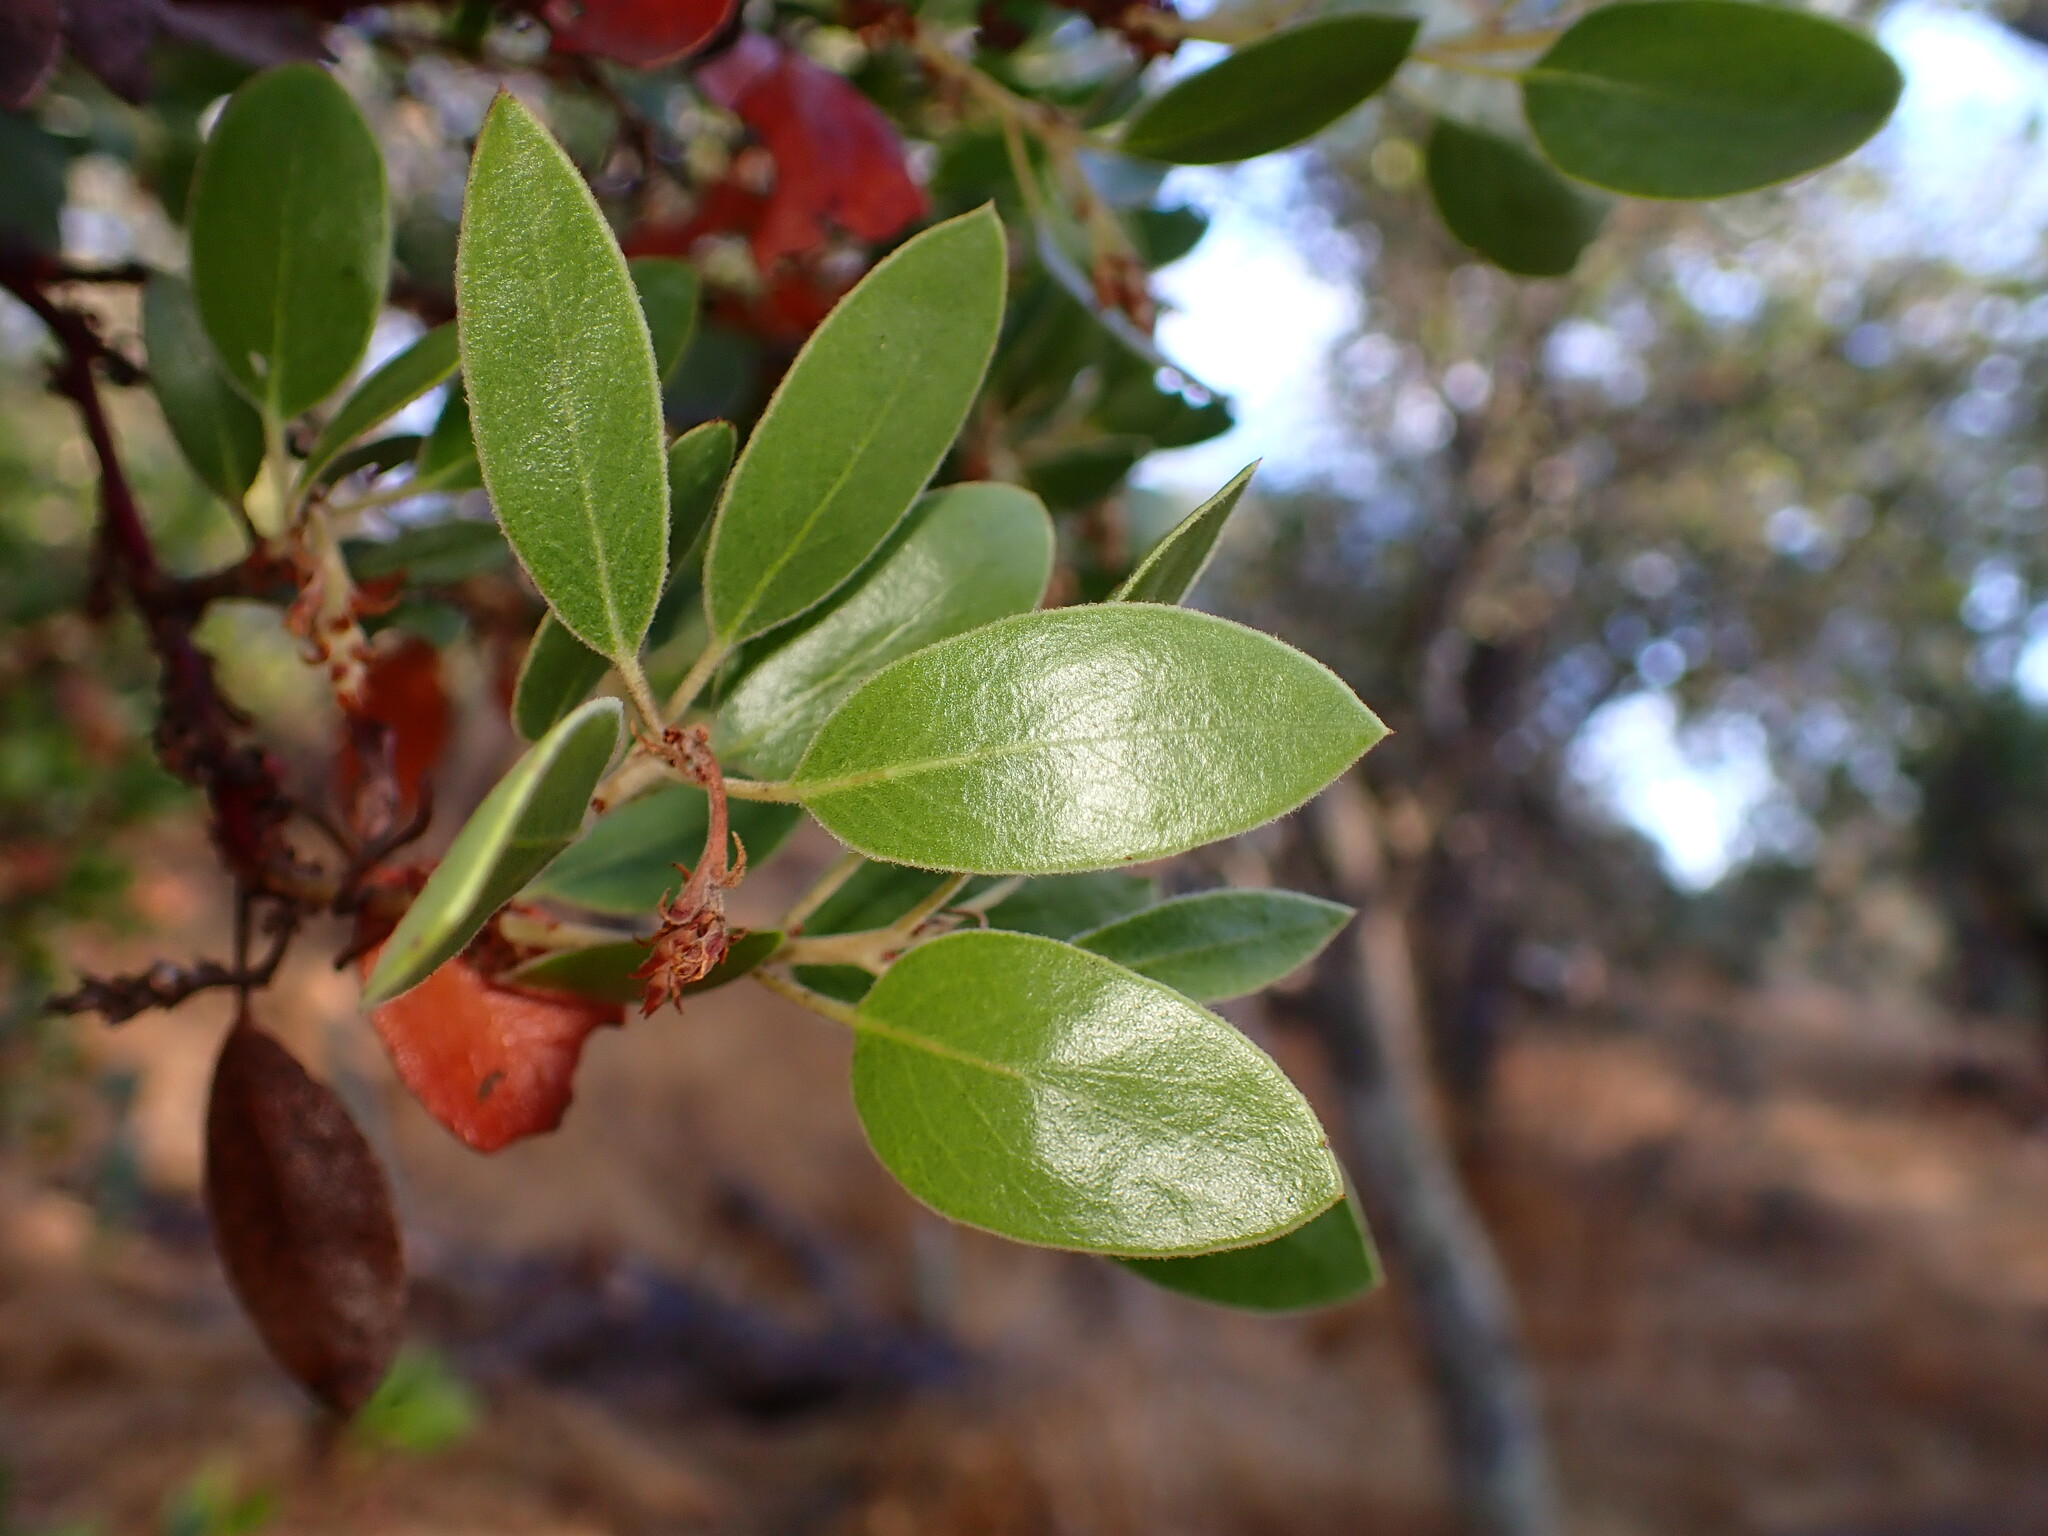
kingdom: Plantae
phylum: Tracheophyta
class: Magnoliopsida
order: Ericales
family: Ericaceae
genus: Arctostaphylos
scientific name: Arctostaphylos manzanita
